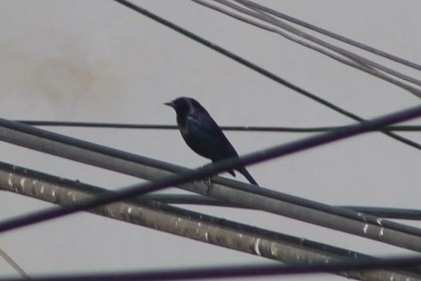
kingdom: Animalia
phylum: Chordata
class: Aves
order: Passeriformes
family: Icteridae
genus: Molothrus
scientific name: Molothrus bonariensis
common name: Shiny cowbird
